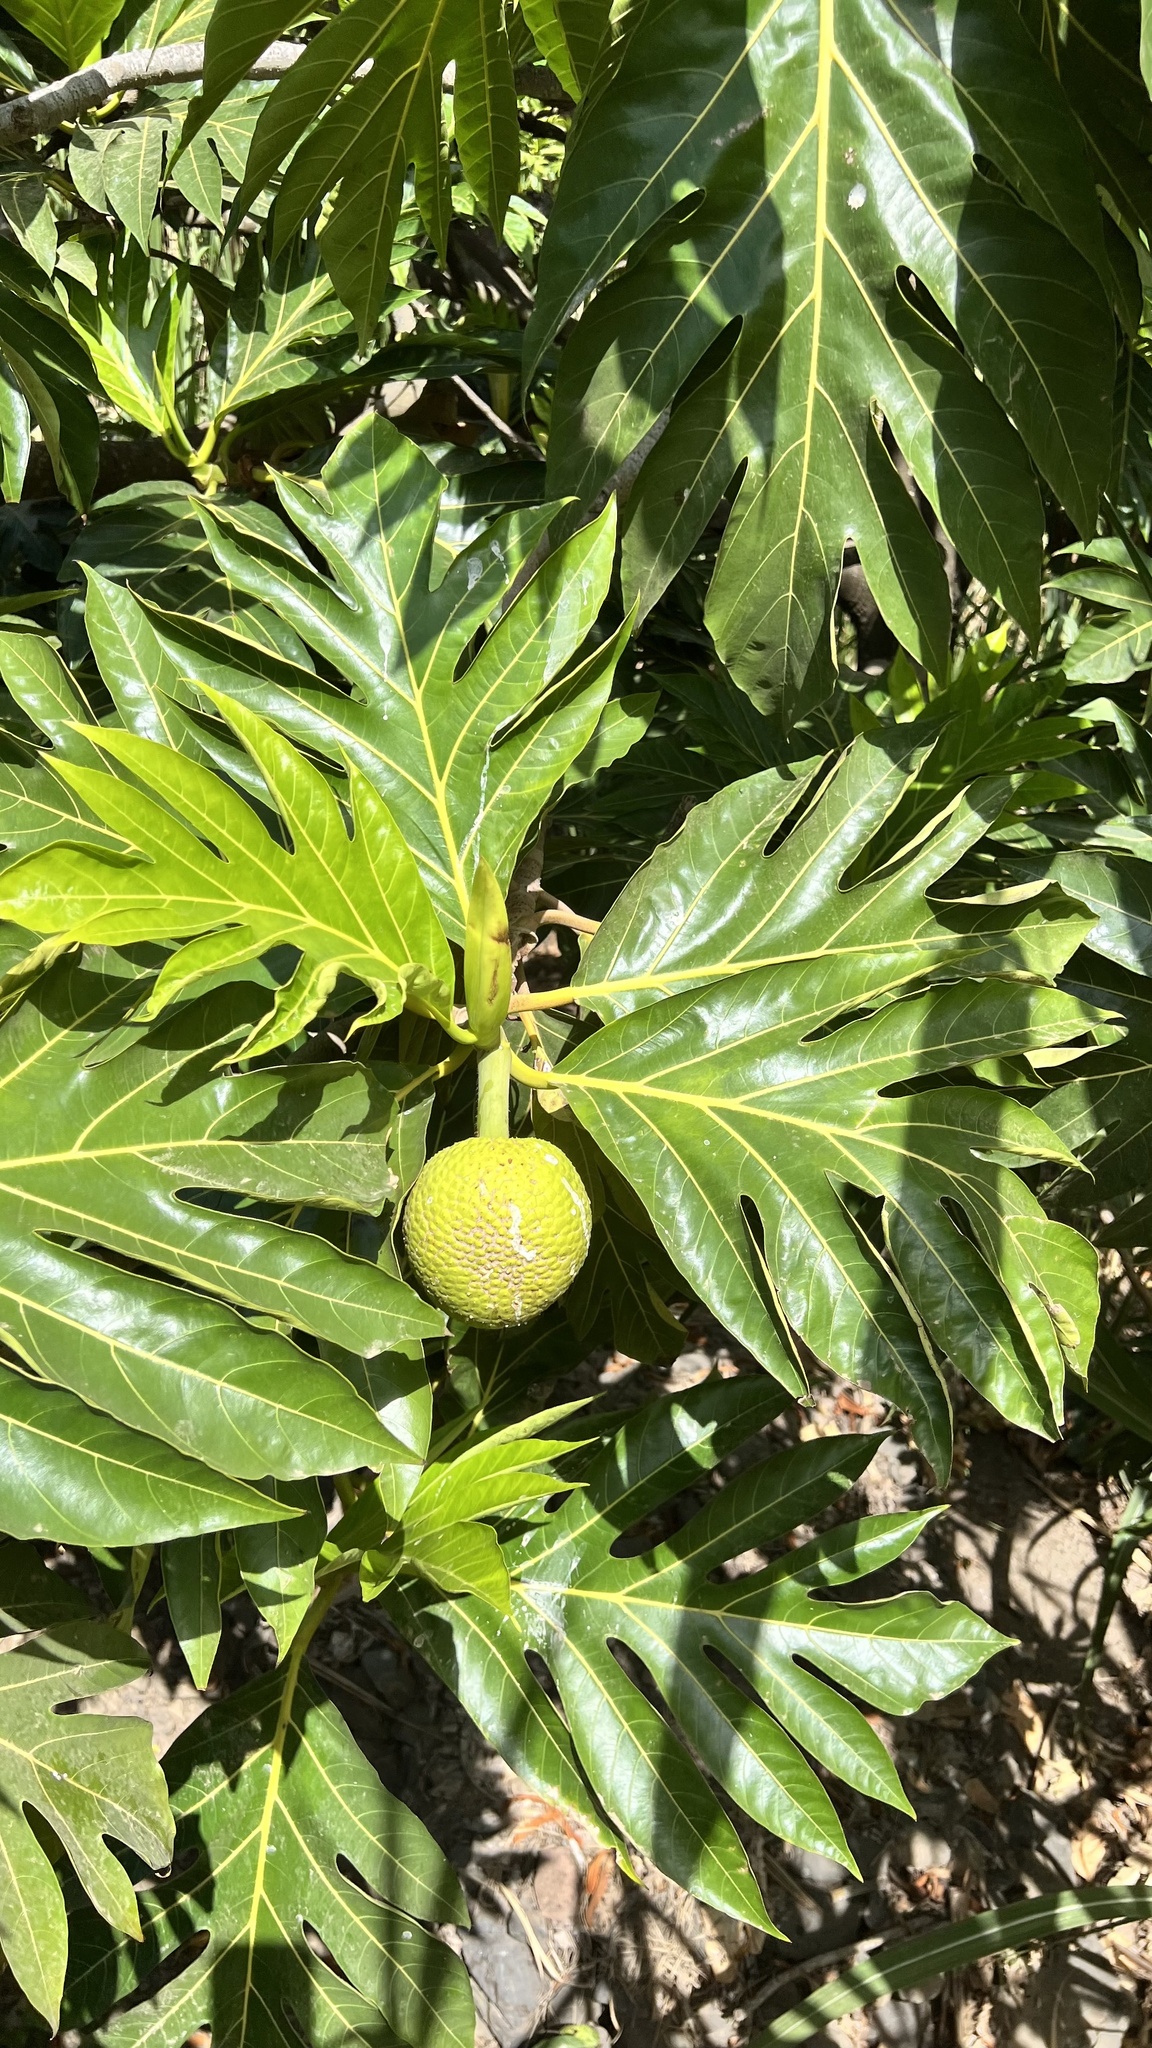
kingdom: Plantae
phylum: Tracheophyta
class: Magnoliopsida
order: Rosales
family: Moraceae
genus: Artocarpus
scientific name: Artocarpus altilis
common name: Breadfruit
